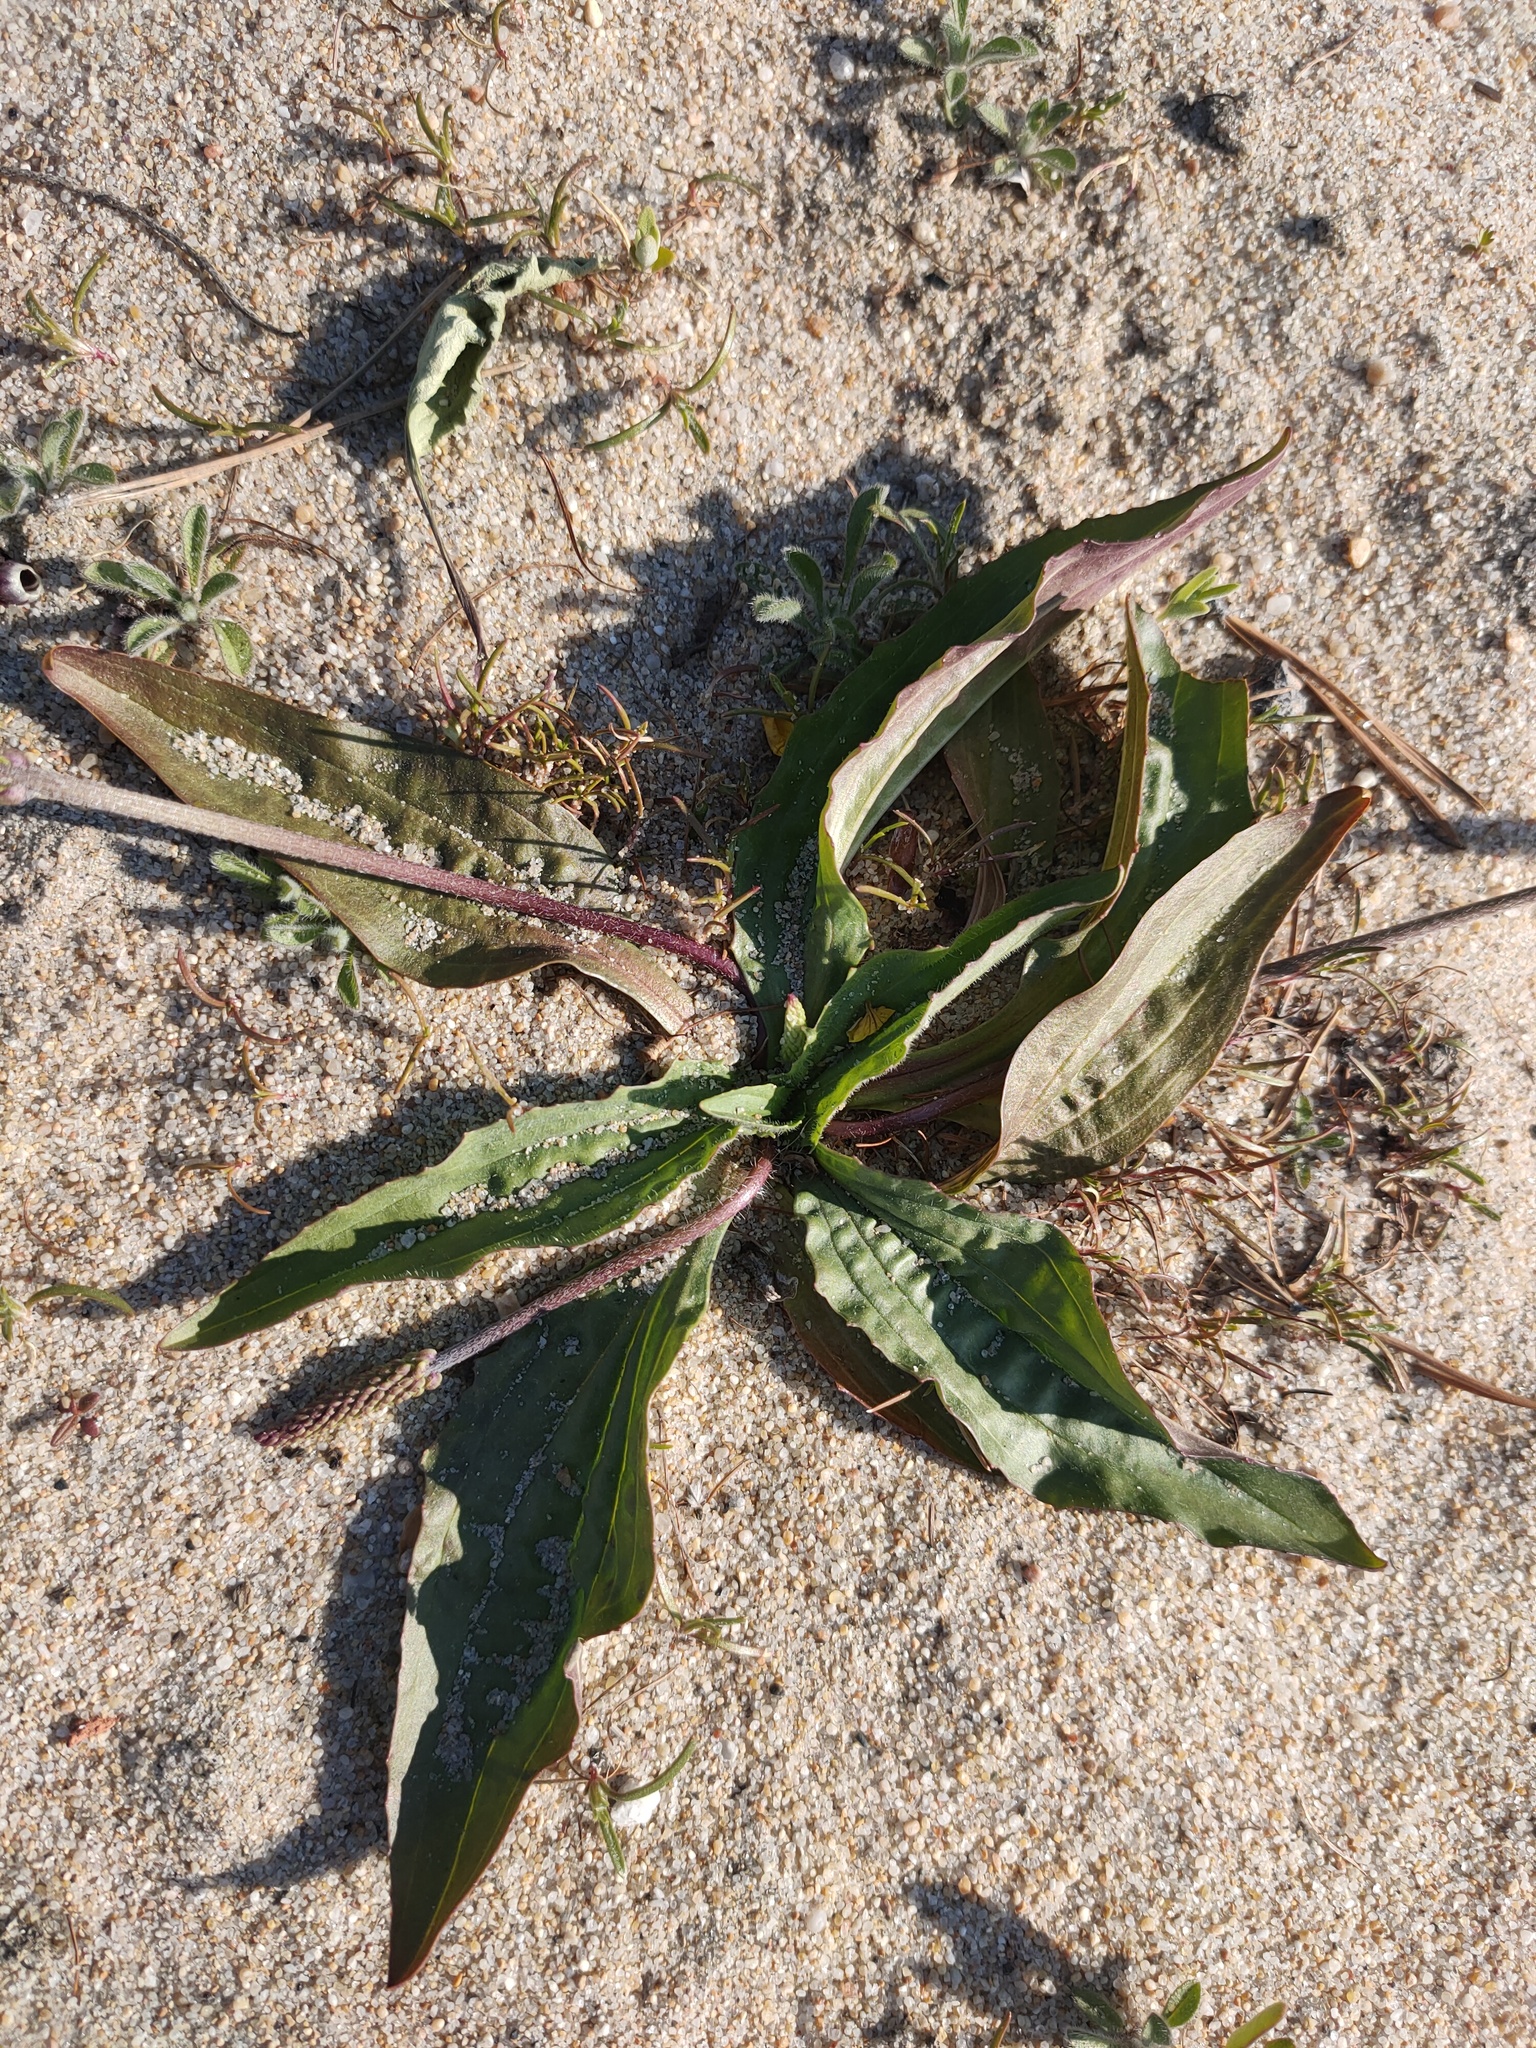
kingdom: Plantae
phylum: Tracheophyta
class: Magnoliopsida
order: Lamiales
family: Plantaginaceae
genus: Plantago
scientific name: Plantago depressa
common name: Depressed plantain
